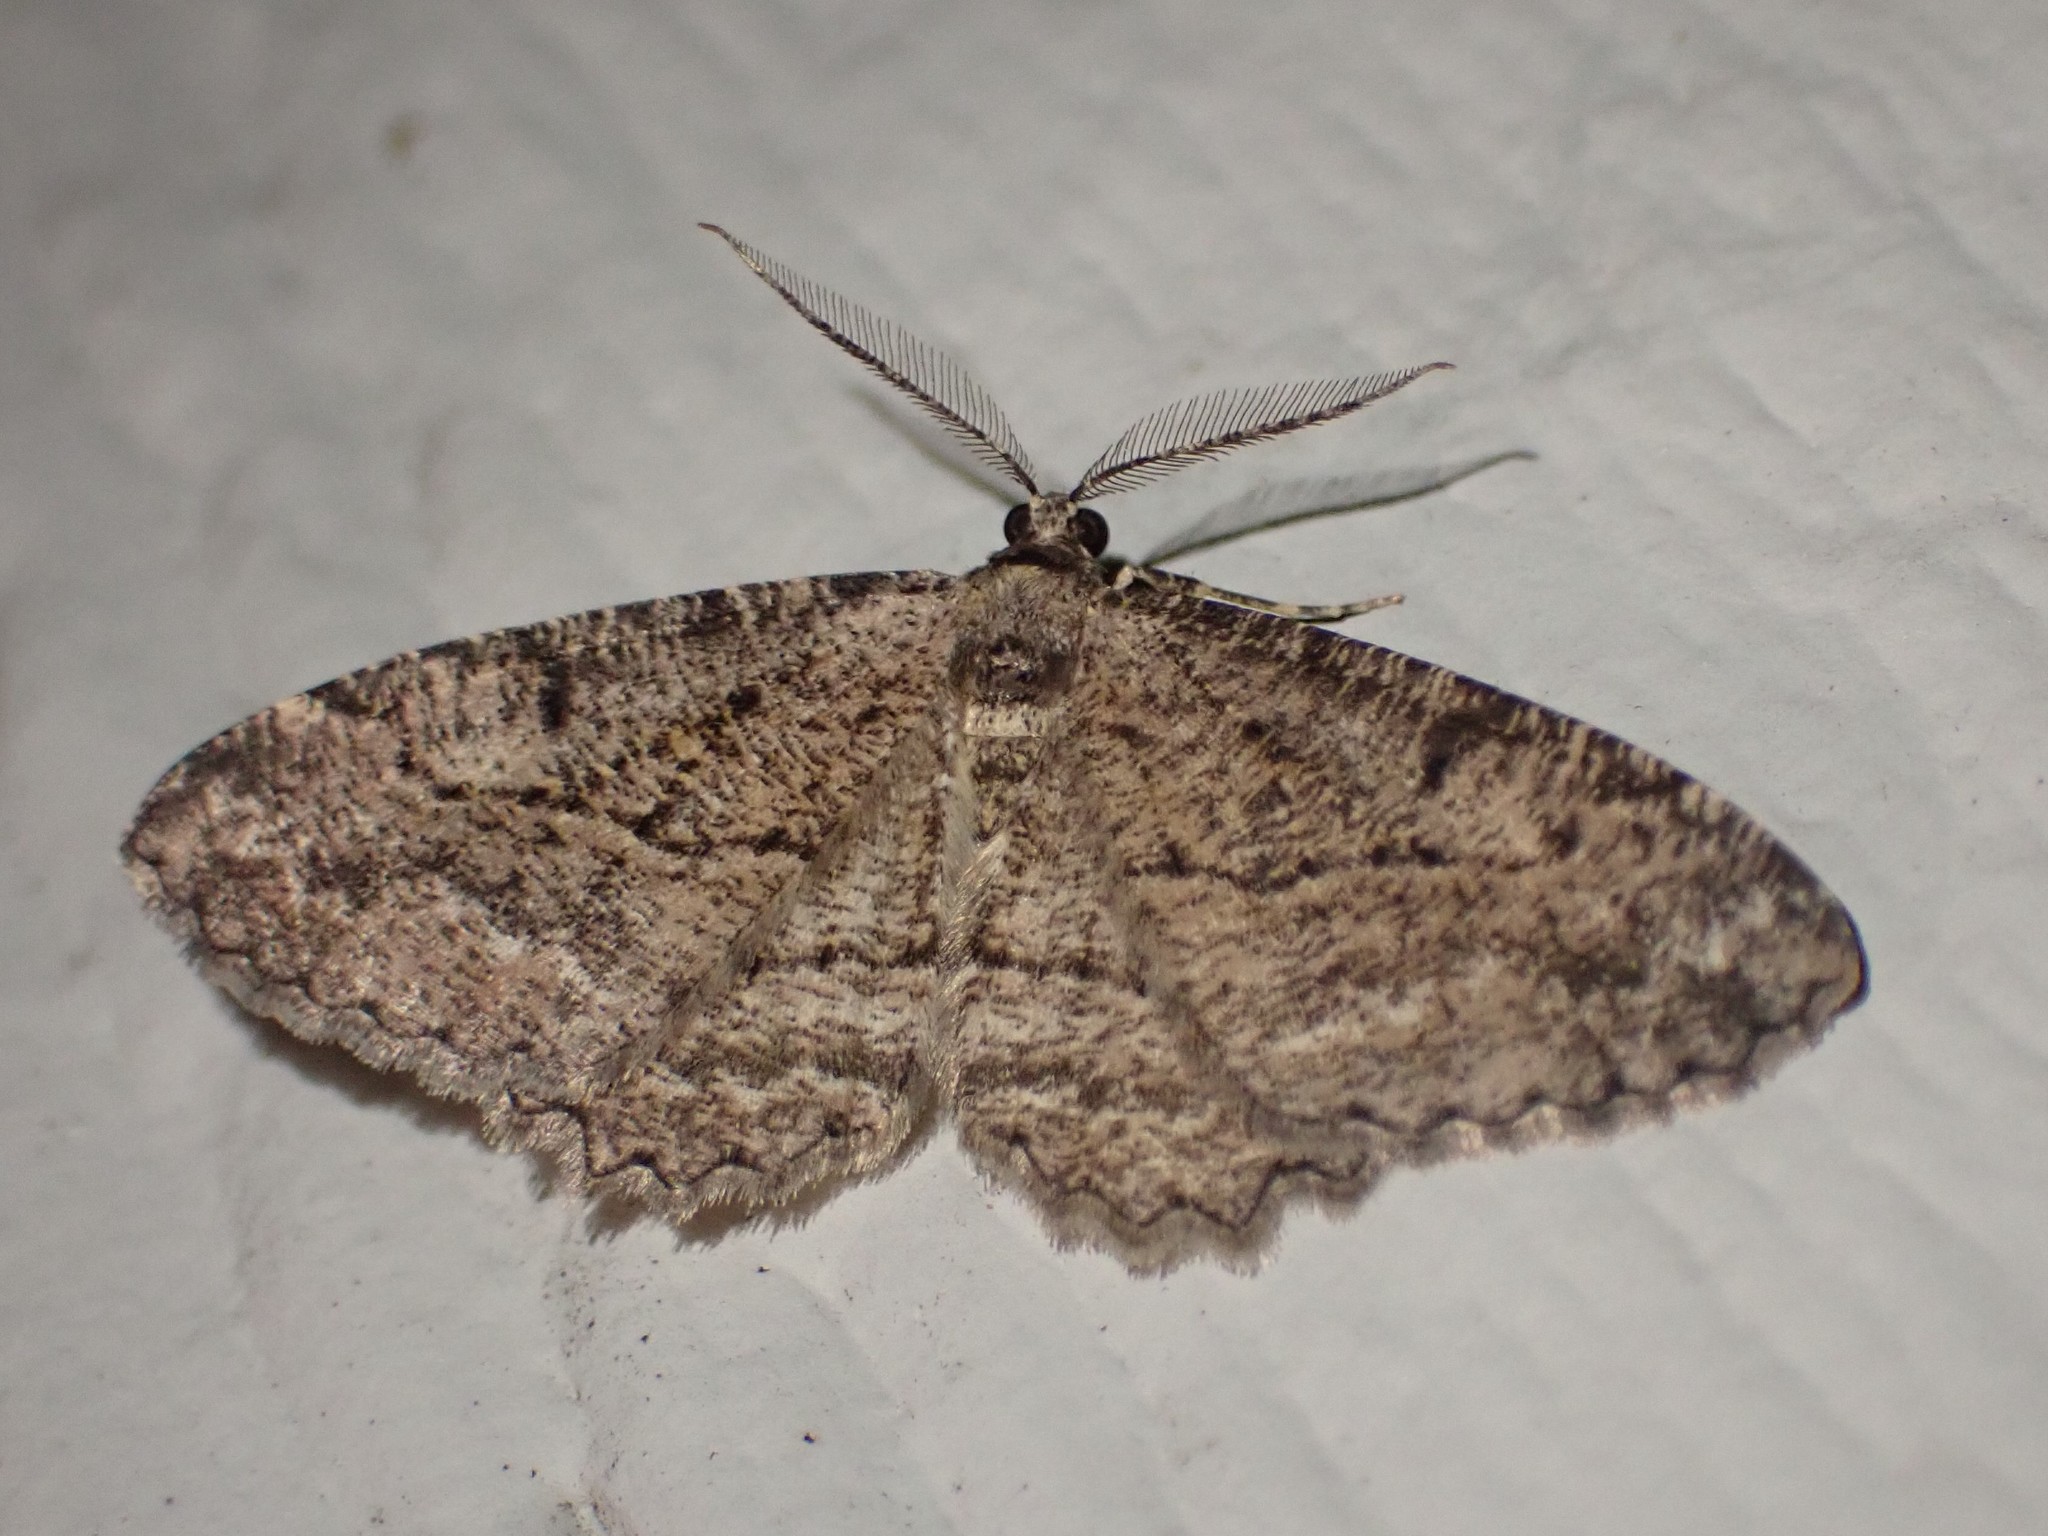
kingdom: Animalia
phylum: Arthropoda
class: Insecta
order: Lepidoptera
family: Geometridae
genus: Neoalcis
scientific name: Neoalcis californiaria
